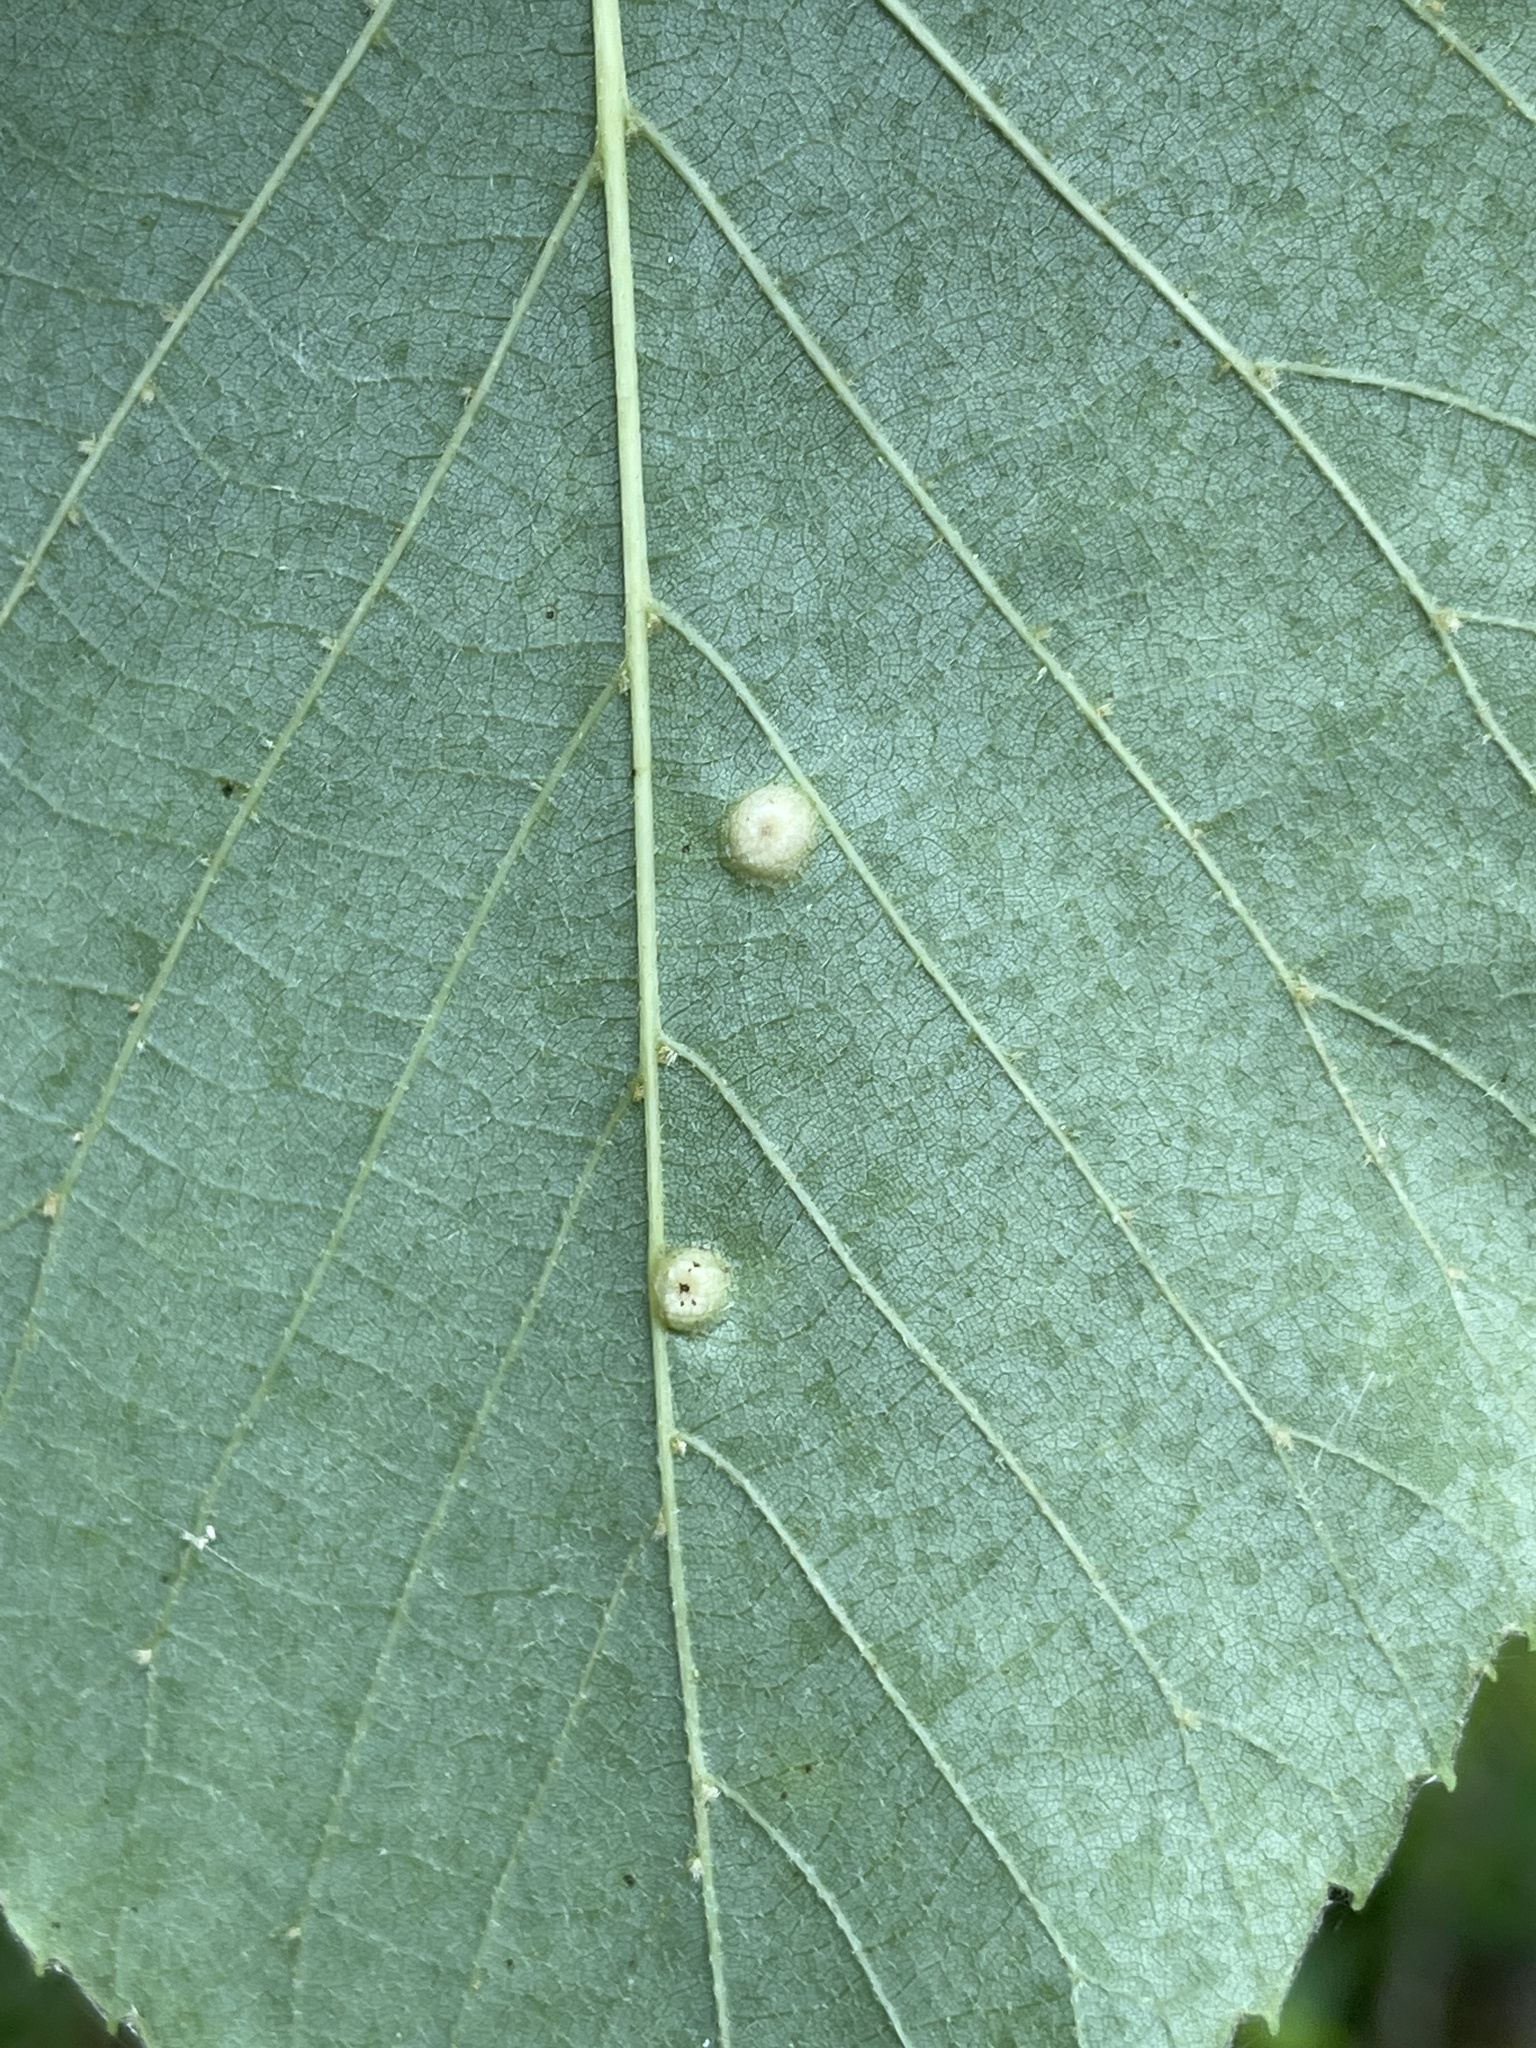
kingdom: Animalia
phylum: Arthropoda
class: Insecta
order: Diptera
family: Cecidomyiidae
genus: Contarinia
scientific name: Contarinia verrucicola
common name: Linden wart gall midge
